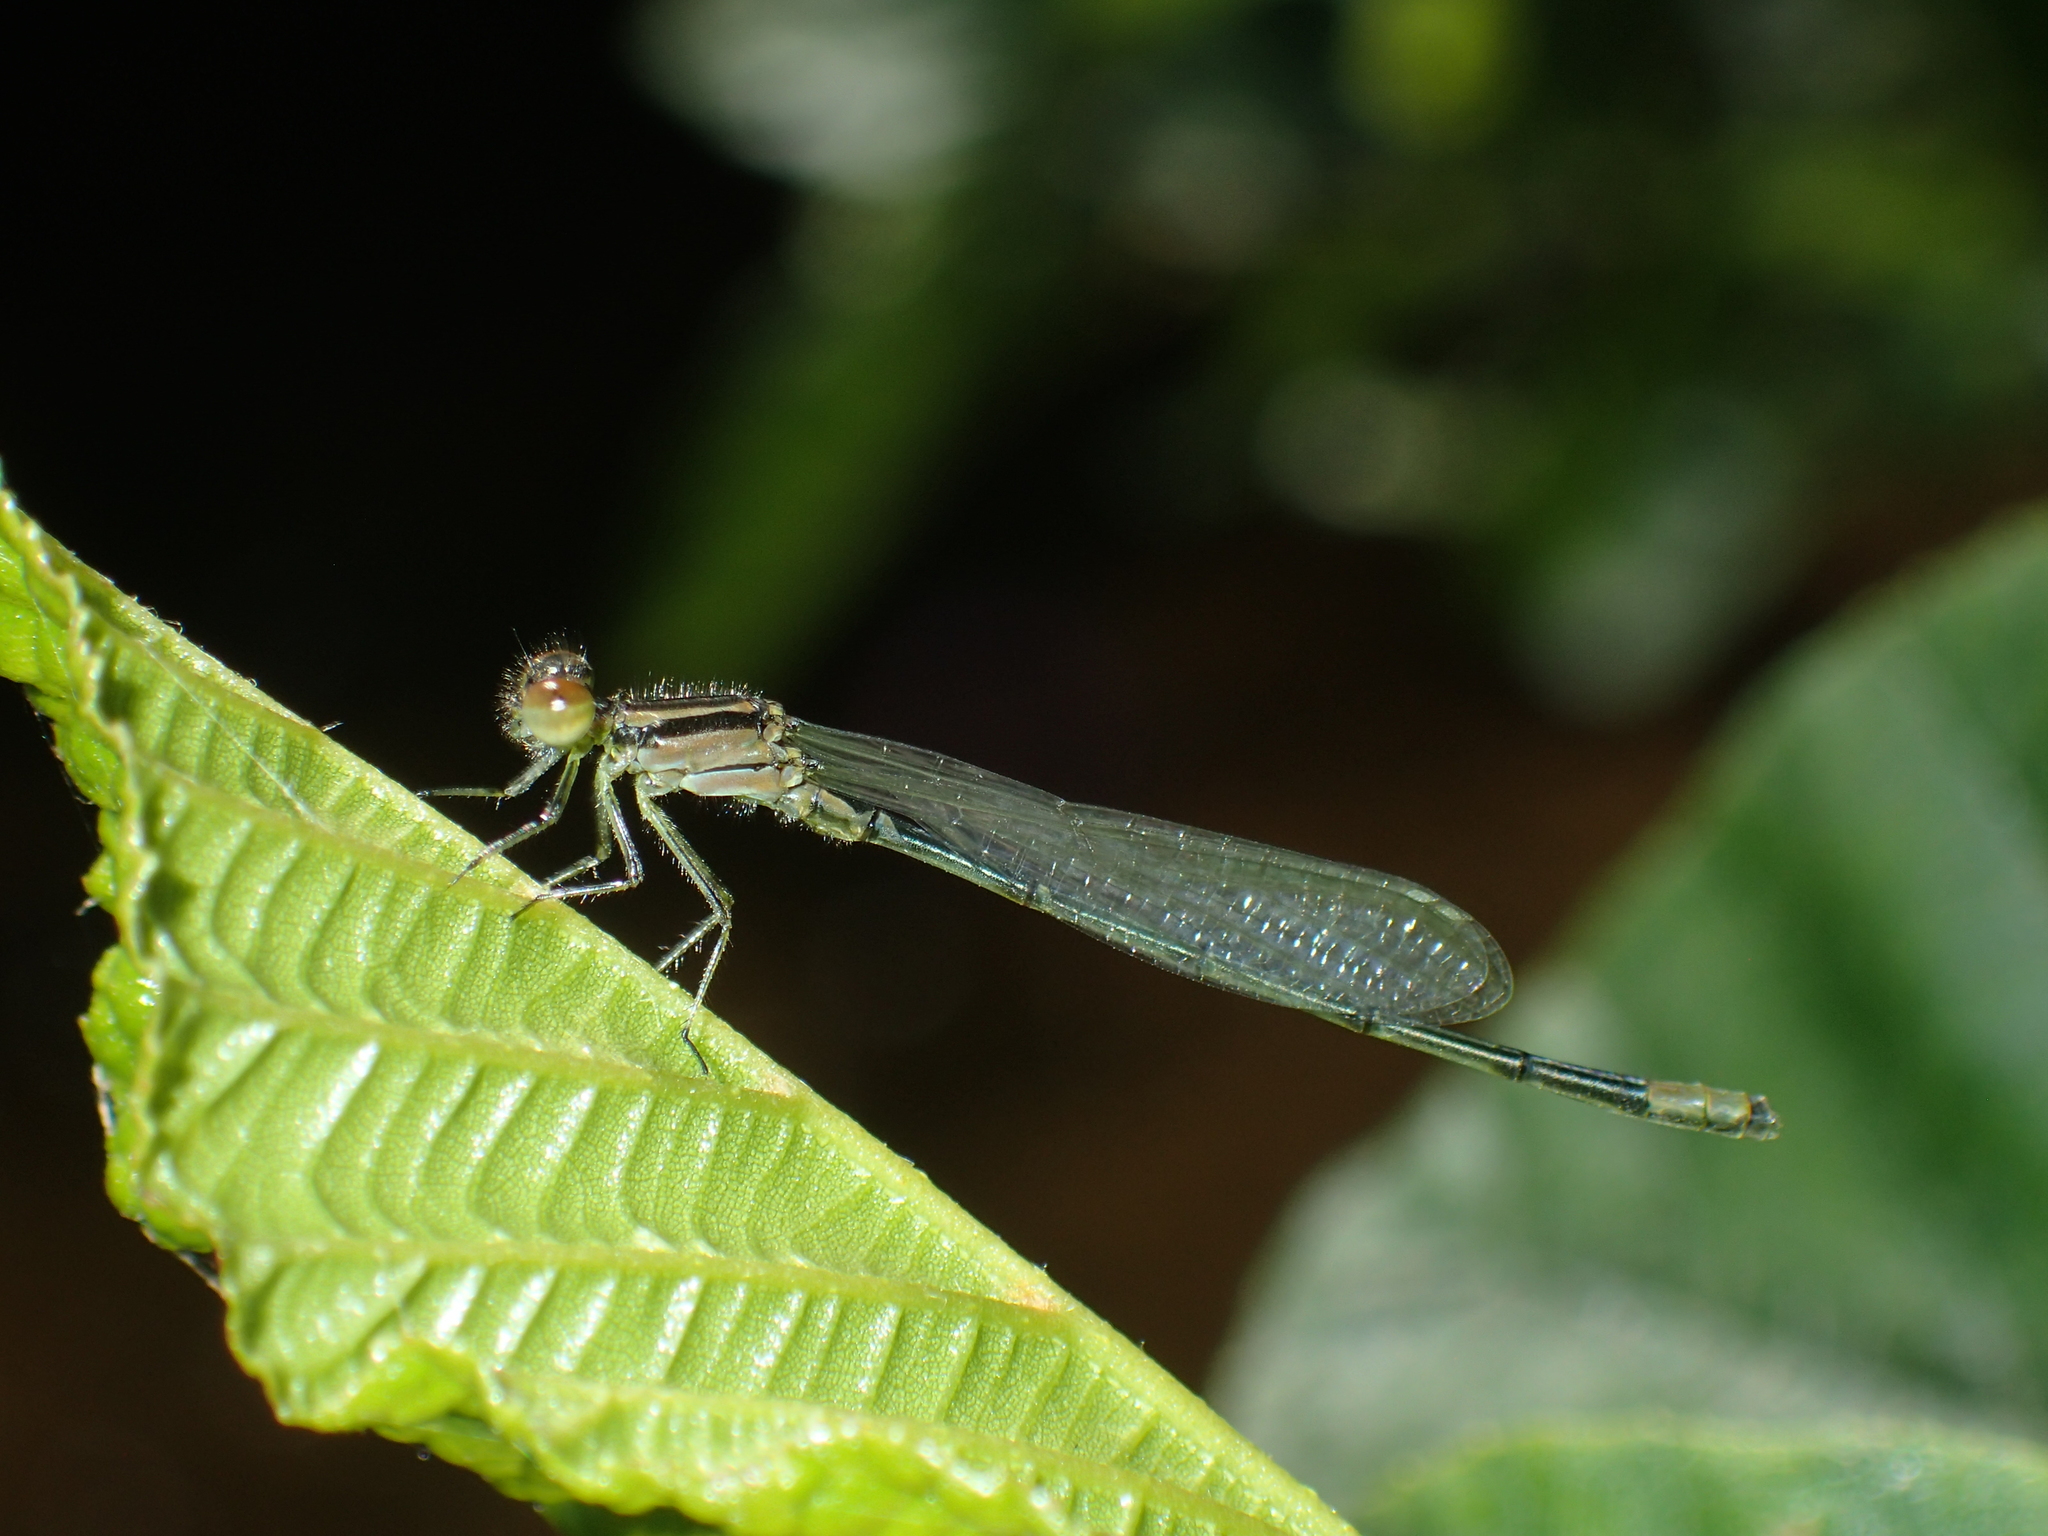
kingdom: Animalia
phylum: Arthropoda
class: Insecta
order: Odonata
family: Coenagrionidae
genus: Enallagma
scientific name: Enallagma geminatum
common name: Skimming bluet
